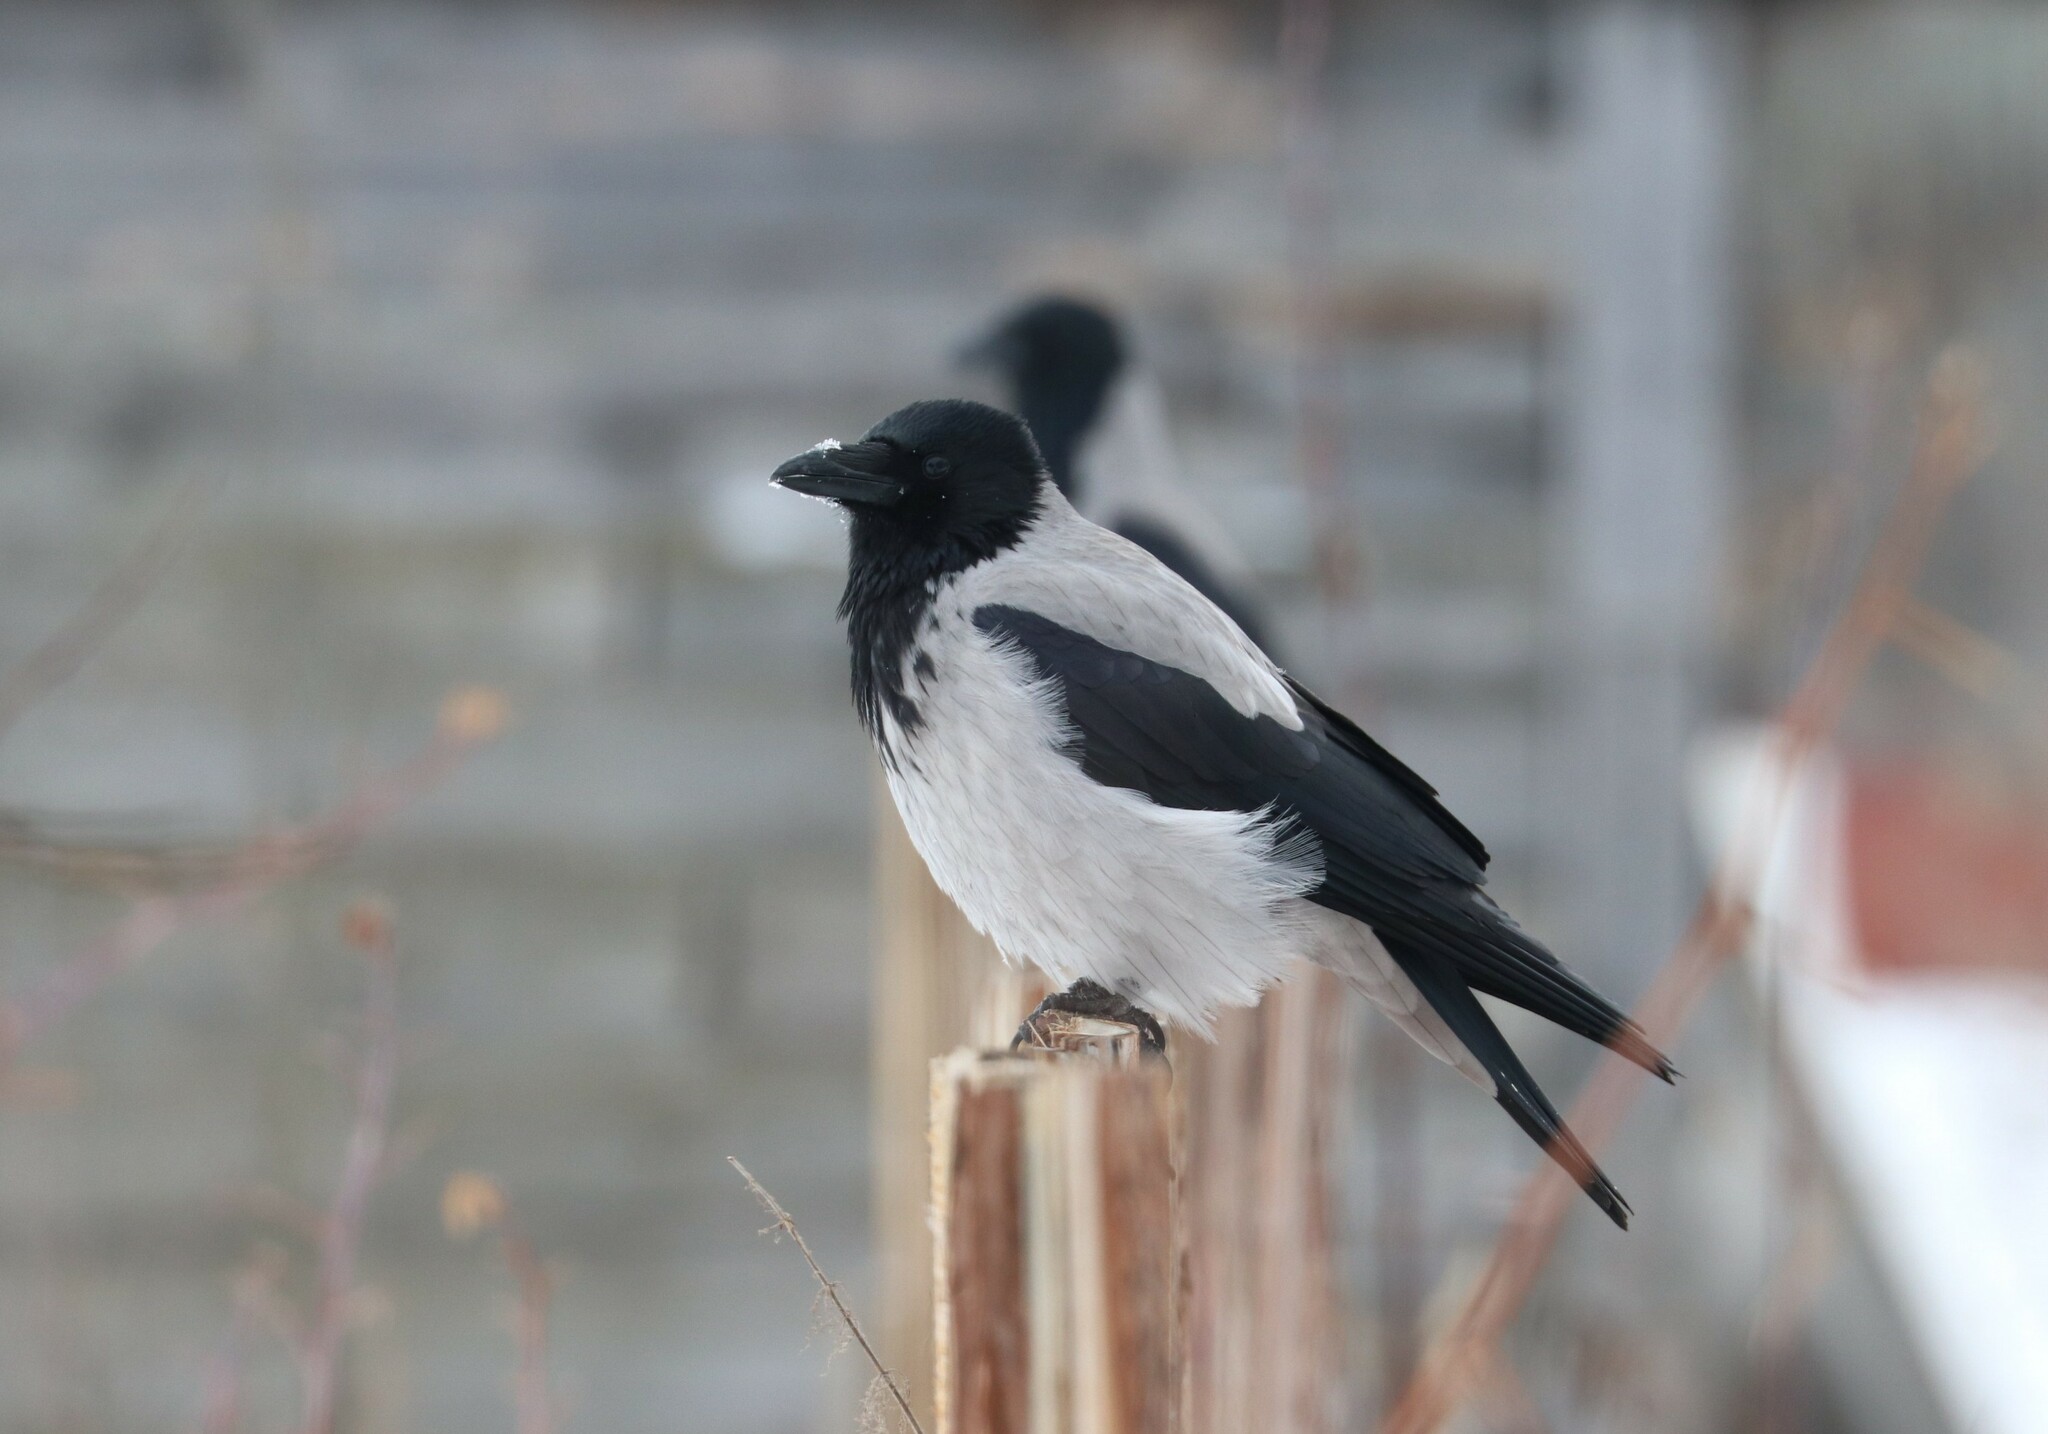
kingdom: Animalia
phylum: Chordata
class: Aves
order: Passeriformes
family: Corvidae
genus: Corvus
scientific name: Corvus cornix
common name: Hooded crow
